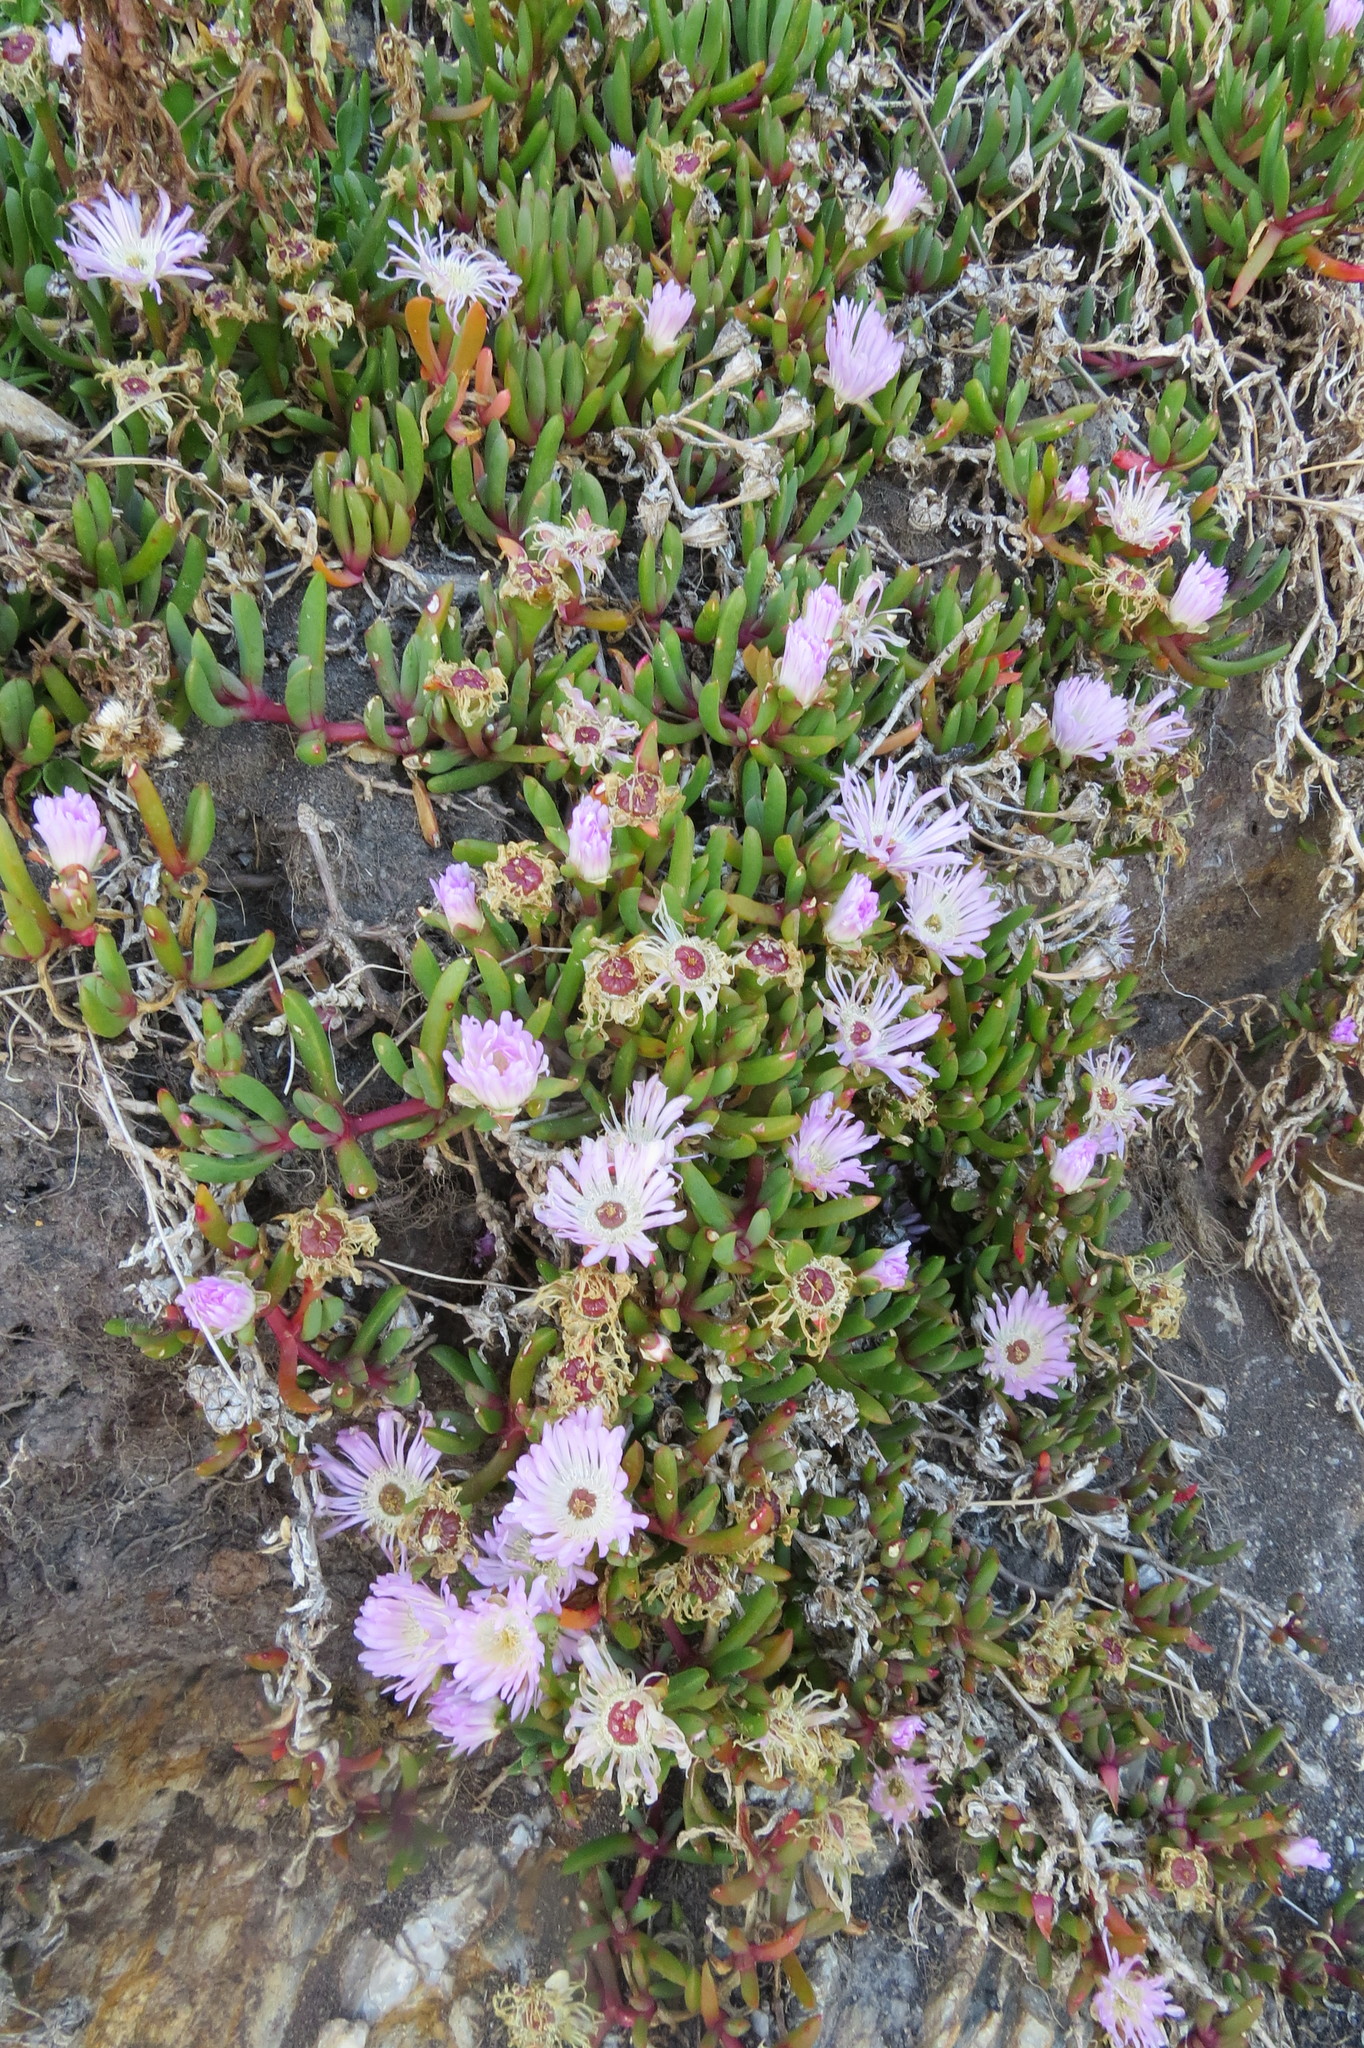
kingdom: Plantae
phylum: Tracheophyta
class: Magnoliopsida
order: Caryophyllales
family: Aizoaceae
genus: Disphyma
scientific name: Disphyma australe
